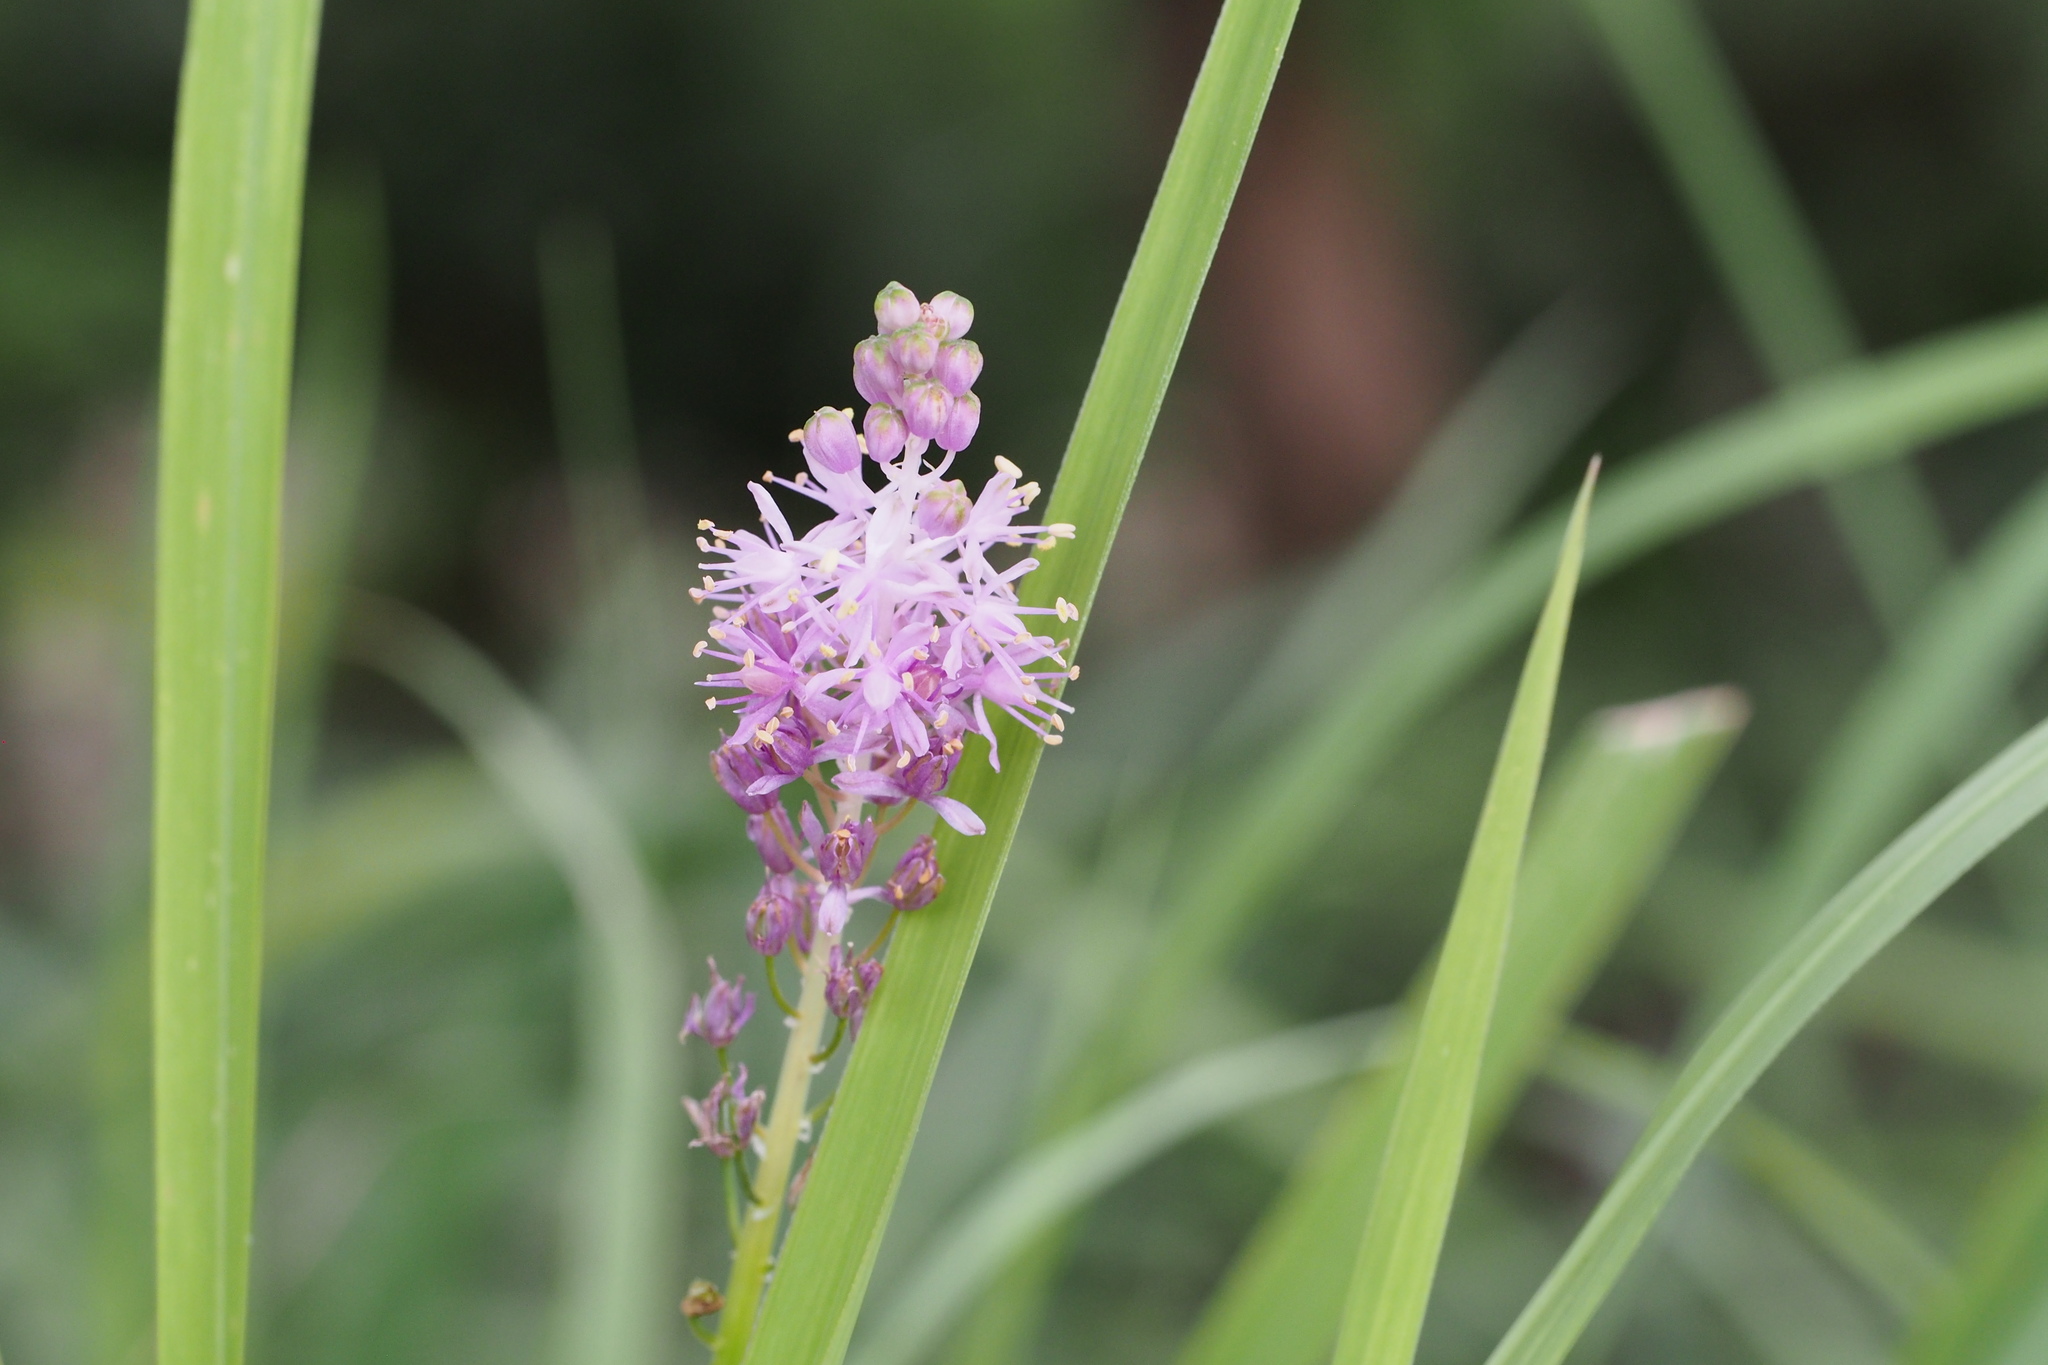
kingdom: Plantae
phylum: Tracheophyta
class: Liliopsida
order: Asparagales
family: Asparagaceae
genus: Barnardia
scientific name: Barnardia japonica
